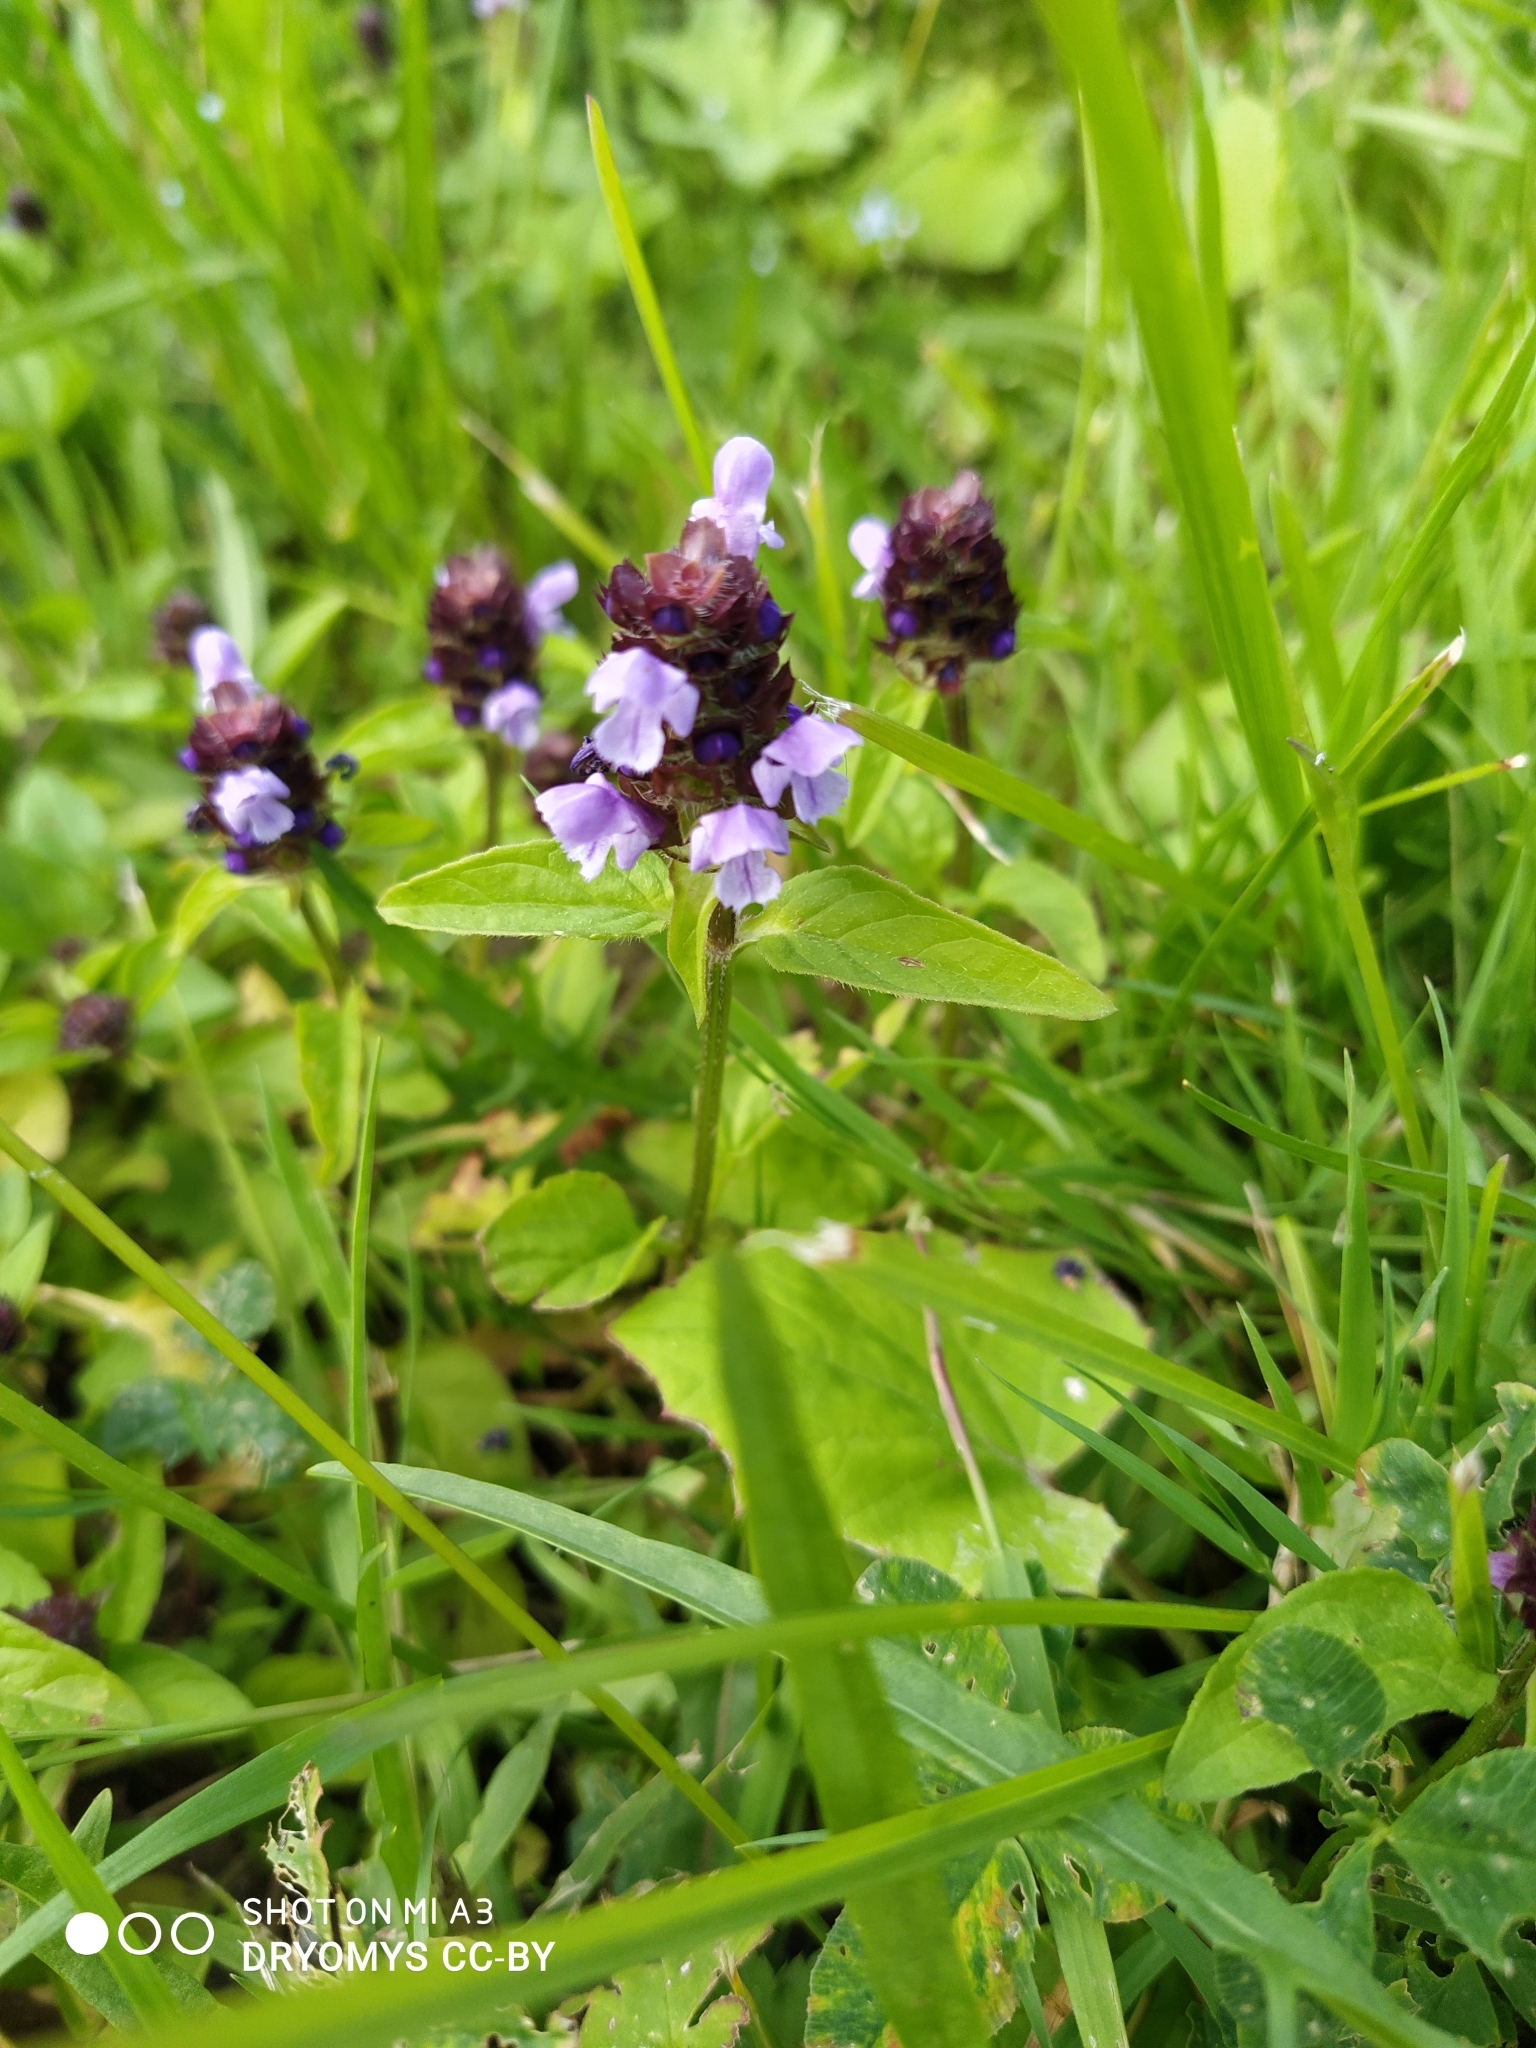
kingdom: Plantae
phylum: Tracheophyta
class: Magnoliopsida
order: Lamiales
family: Lamiaceae
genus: Prunella
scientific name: Prunella vulgaris
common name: Heal-all
